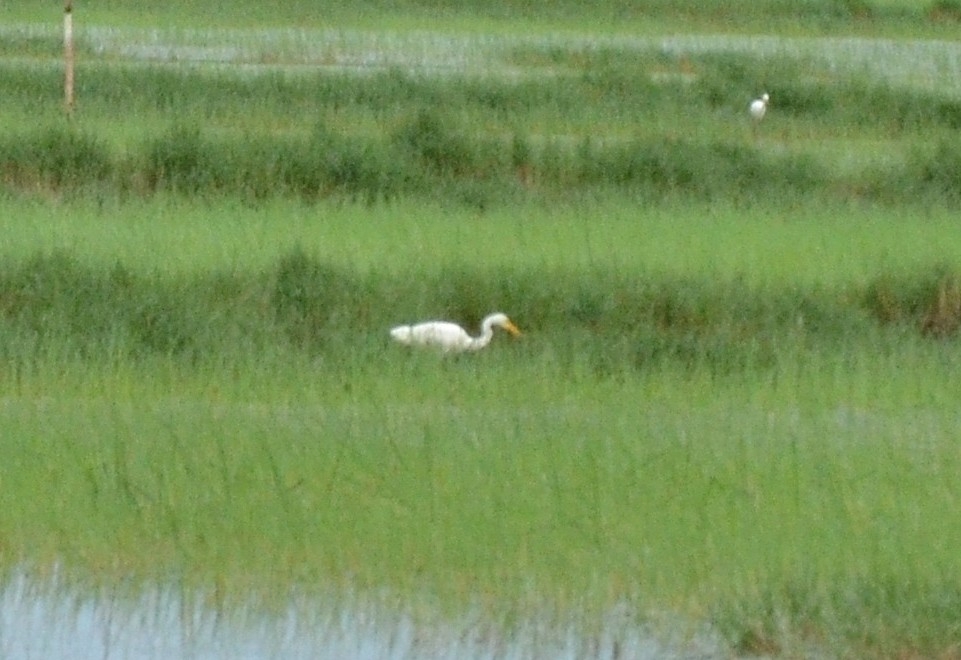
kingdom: Animalia
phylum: Chordata
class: Aves
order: Pelecaniformes
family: Ardeidae
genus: Egretta
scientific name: Egretta intermedia
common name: Intermediate egret
